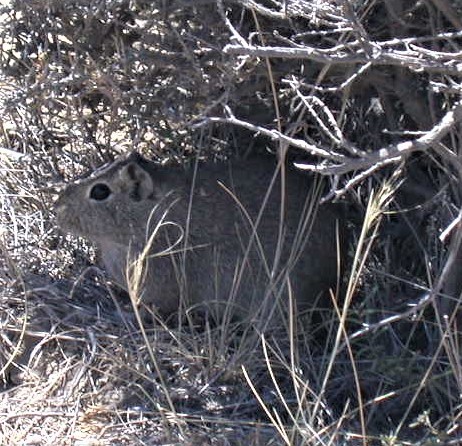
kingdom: Animalia
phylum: Chordata
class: Mammalia
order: Rodentia
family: Caviidae
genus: Microcavia
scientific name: Microcavia australis
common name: Southern mountain cavy
